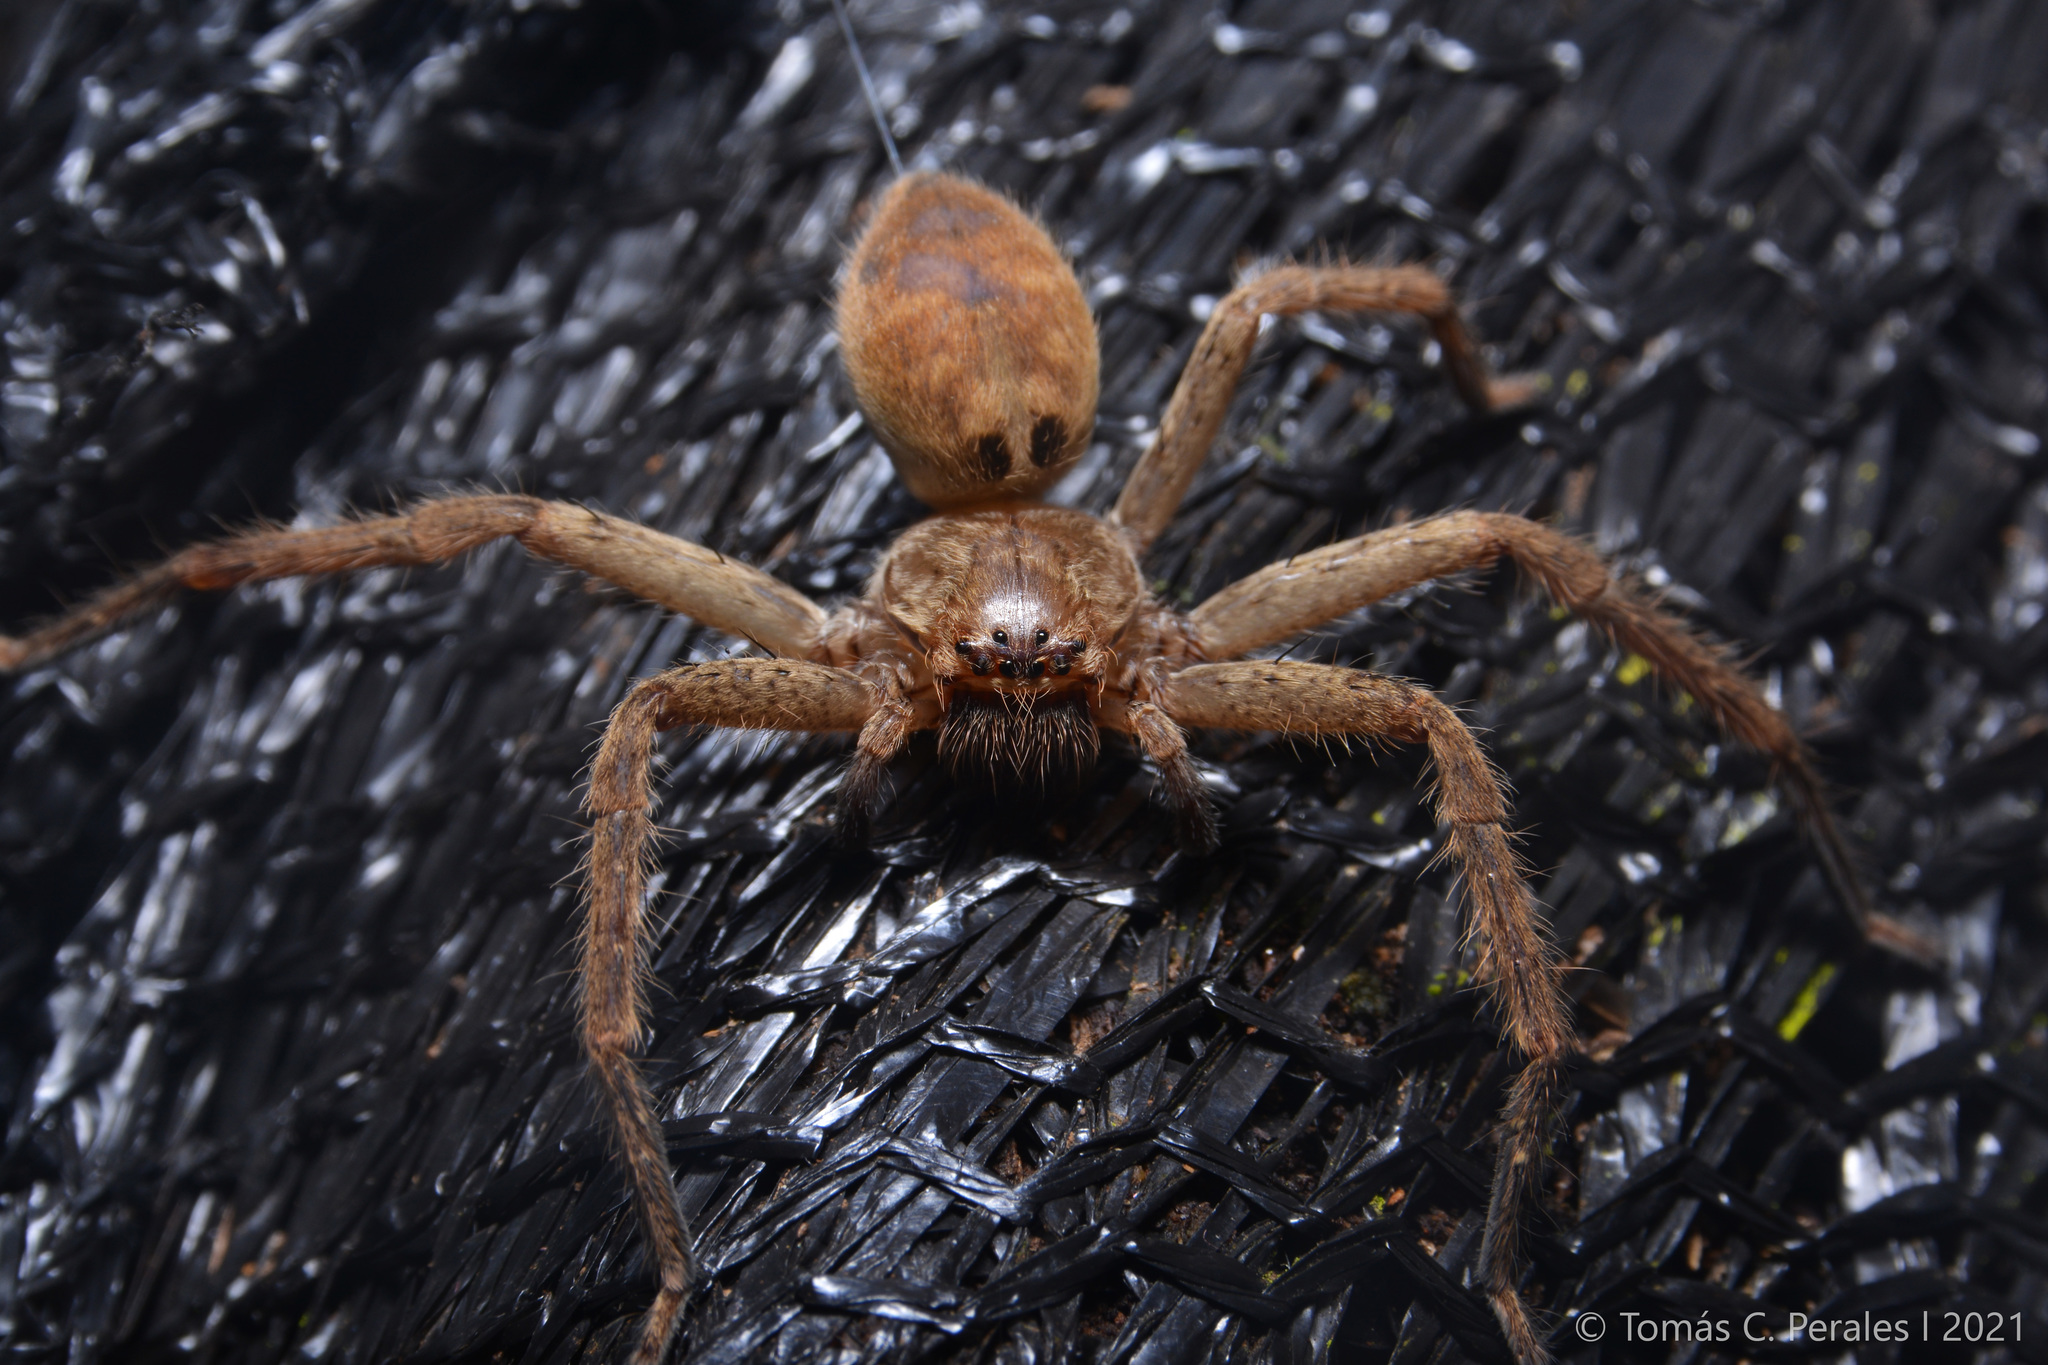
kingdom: Animalia
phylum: Arthropoda
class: Arachnida
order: Araneae
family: Sparassidae
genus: Polybetes
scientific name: Polybetes rapidus
